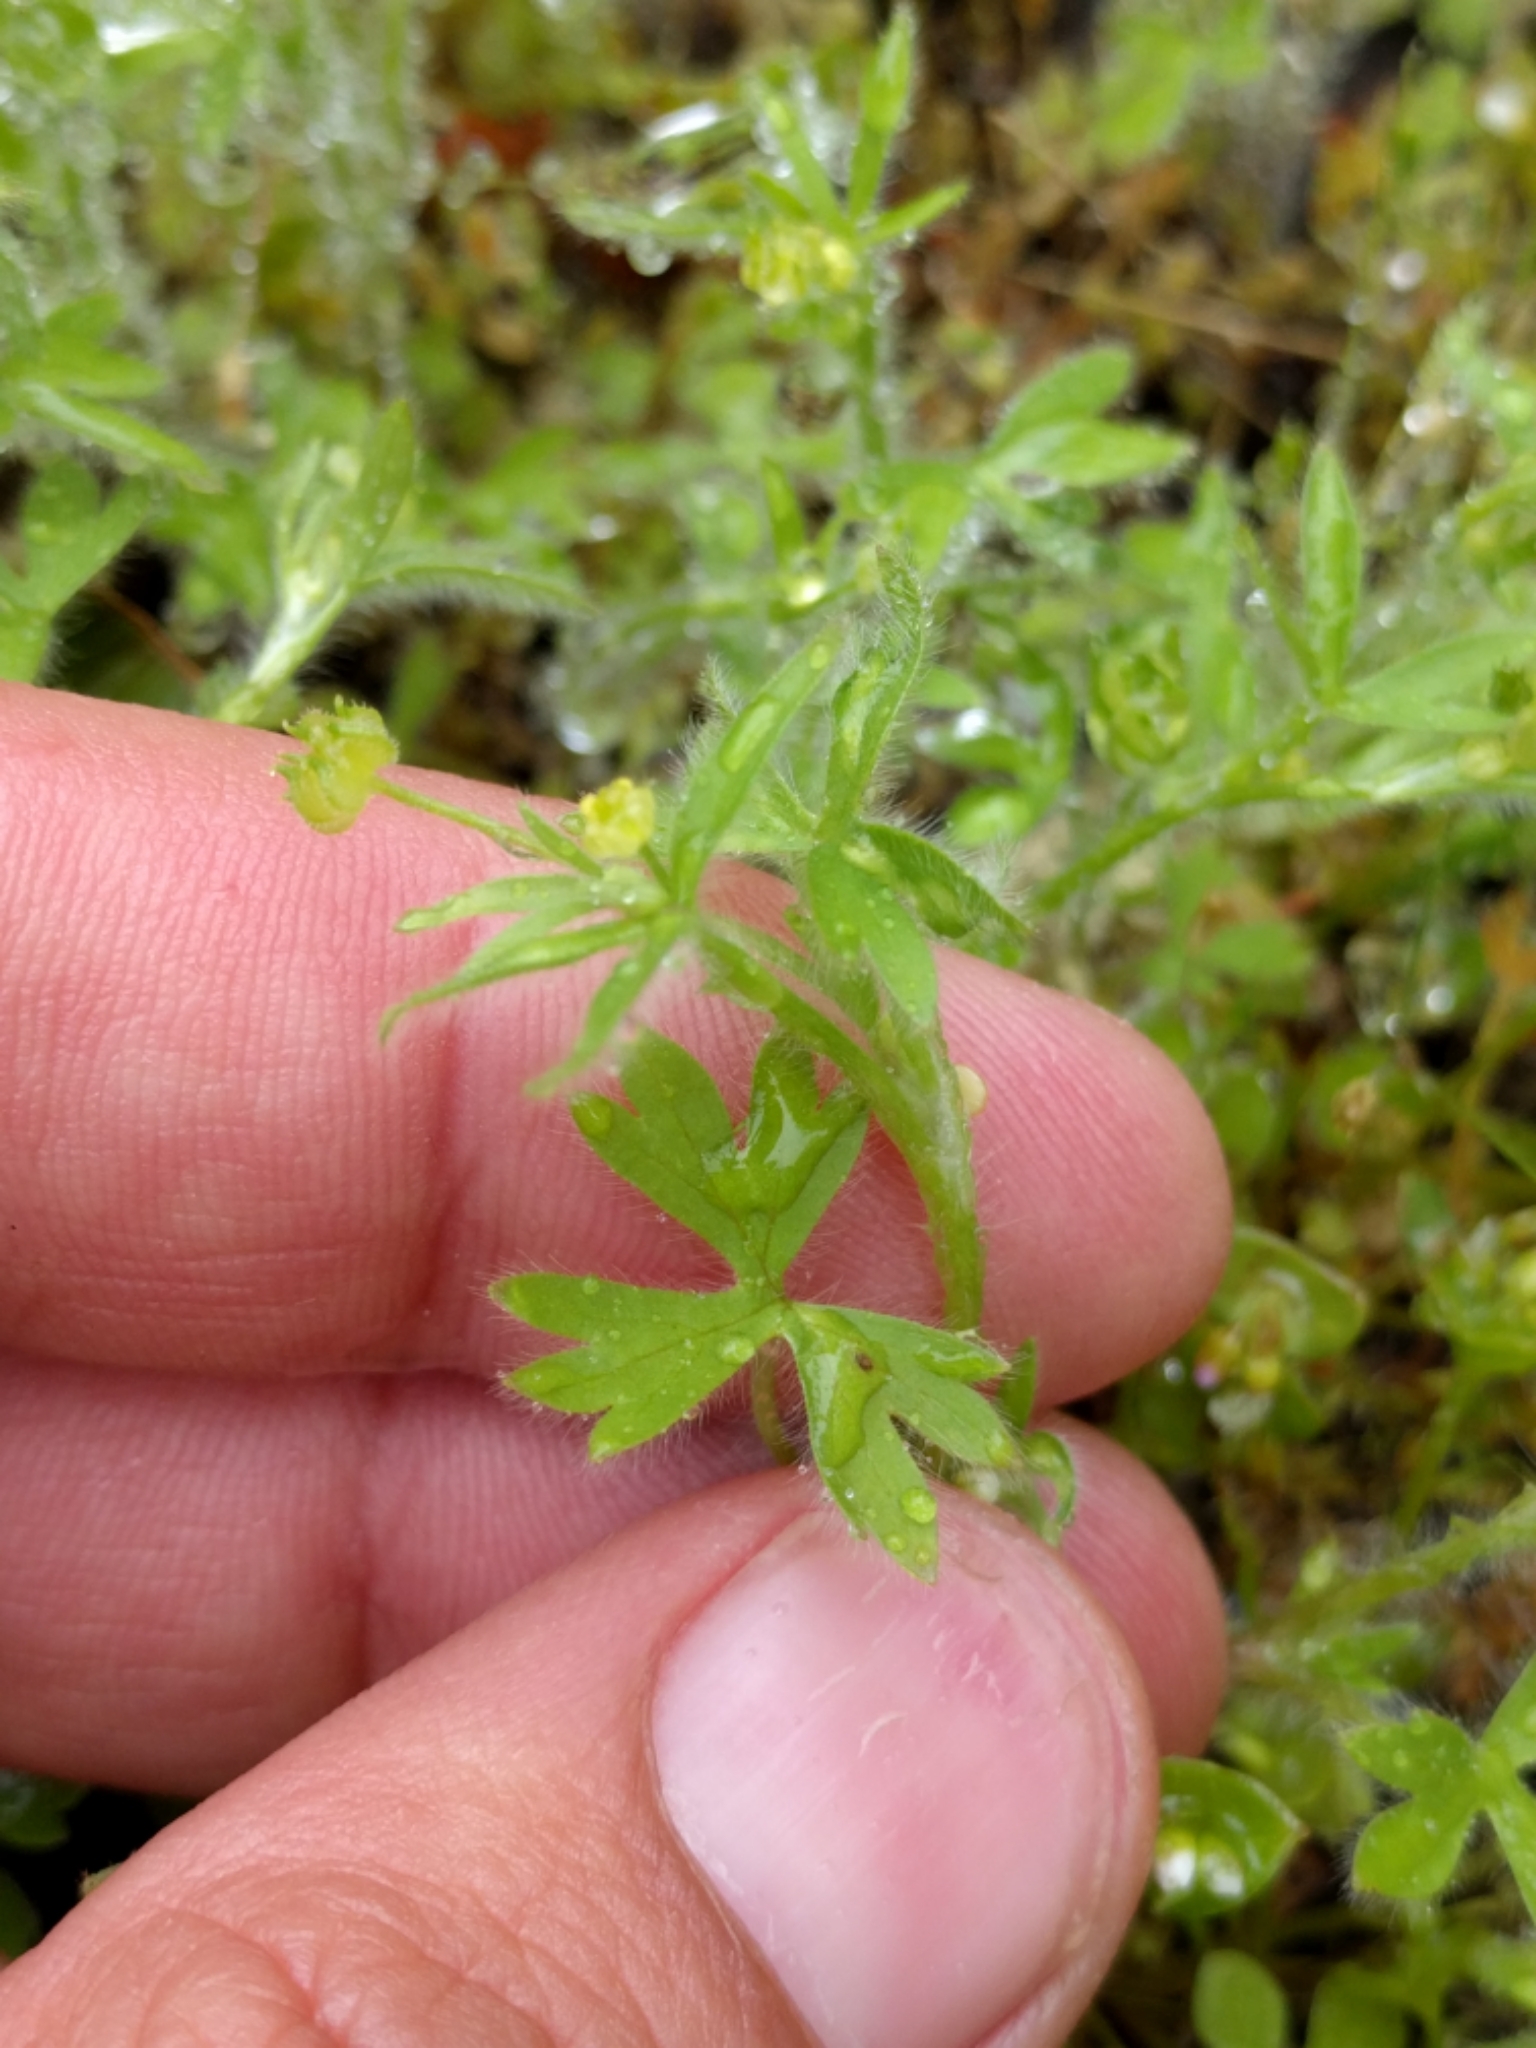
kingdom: Plantae
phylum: Tracheophyta
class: Magnoliopsida
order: Ranunculales
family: Ranunculaceae
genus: Ranunculus
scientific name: Ranunculus hebecarpus
